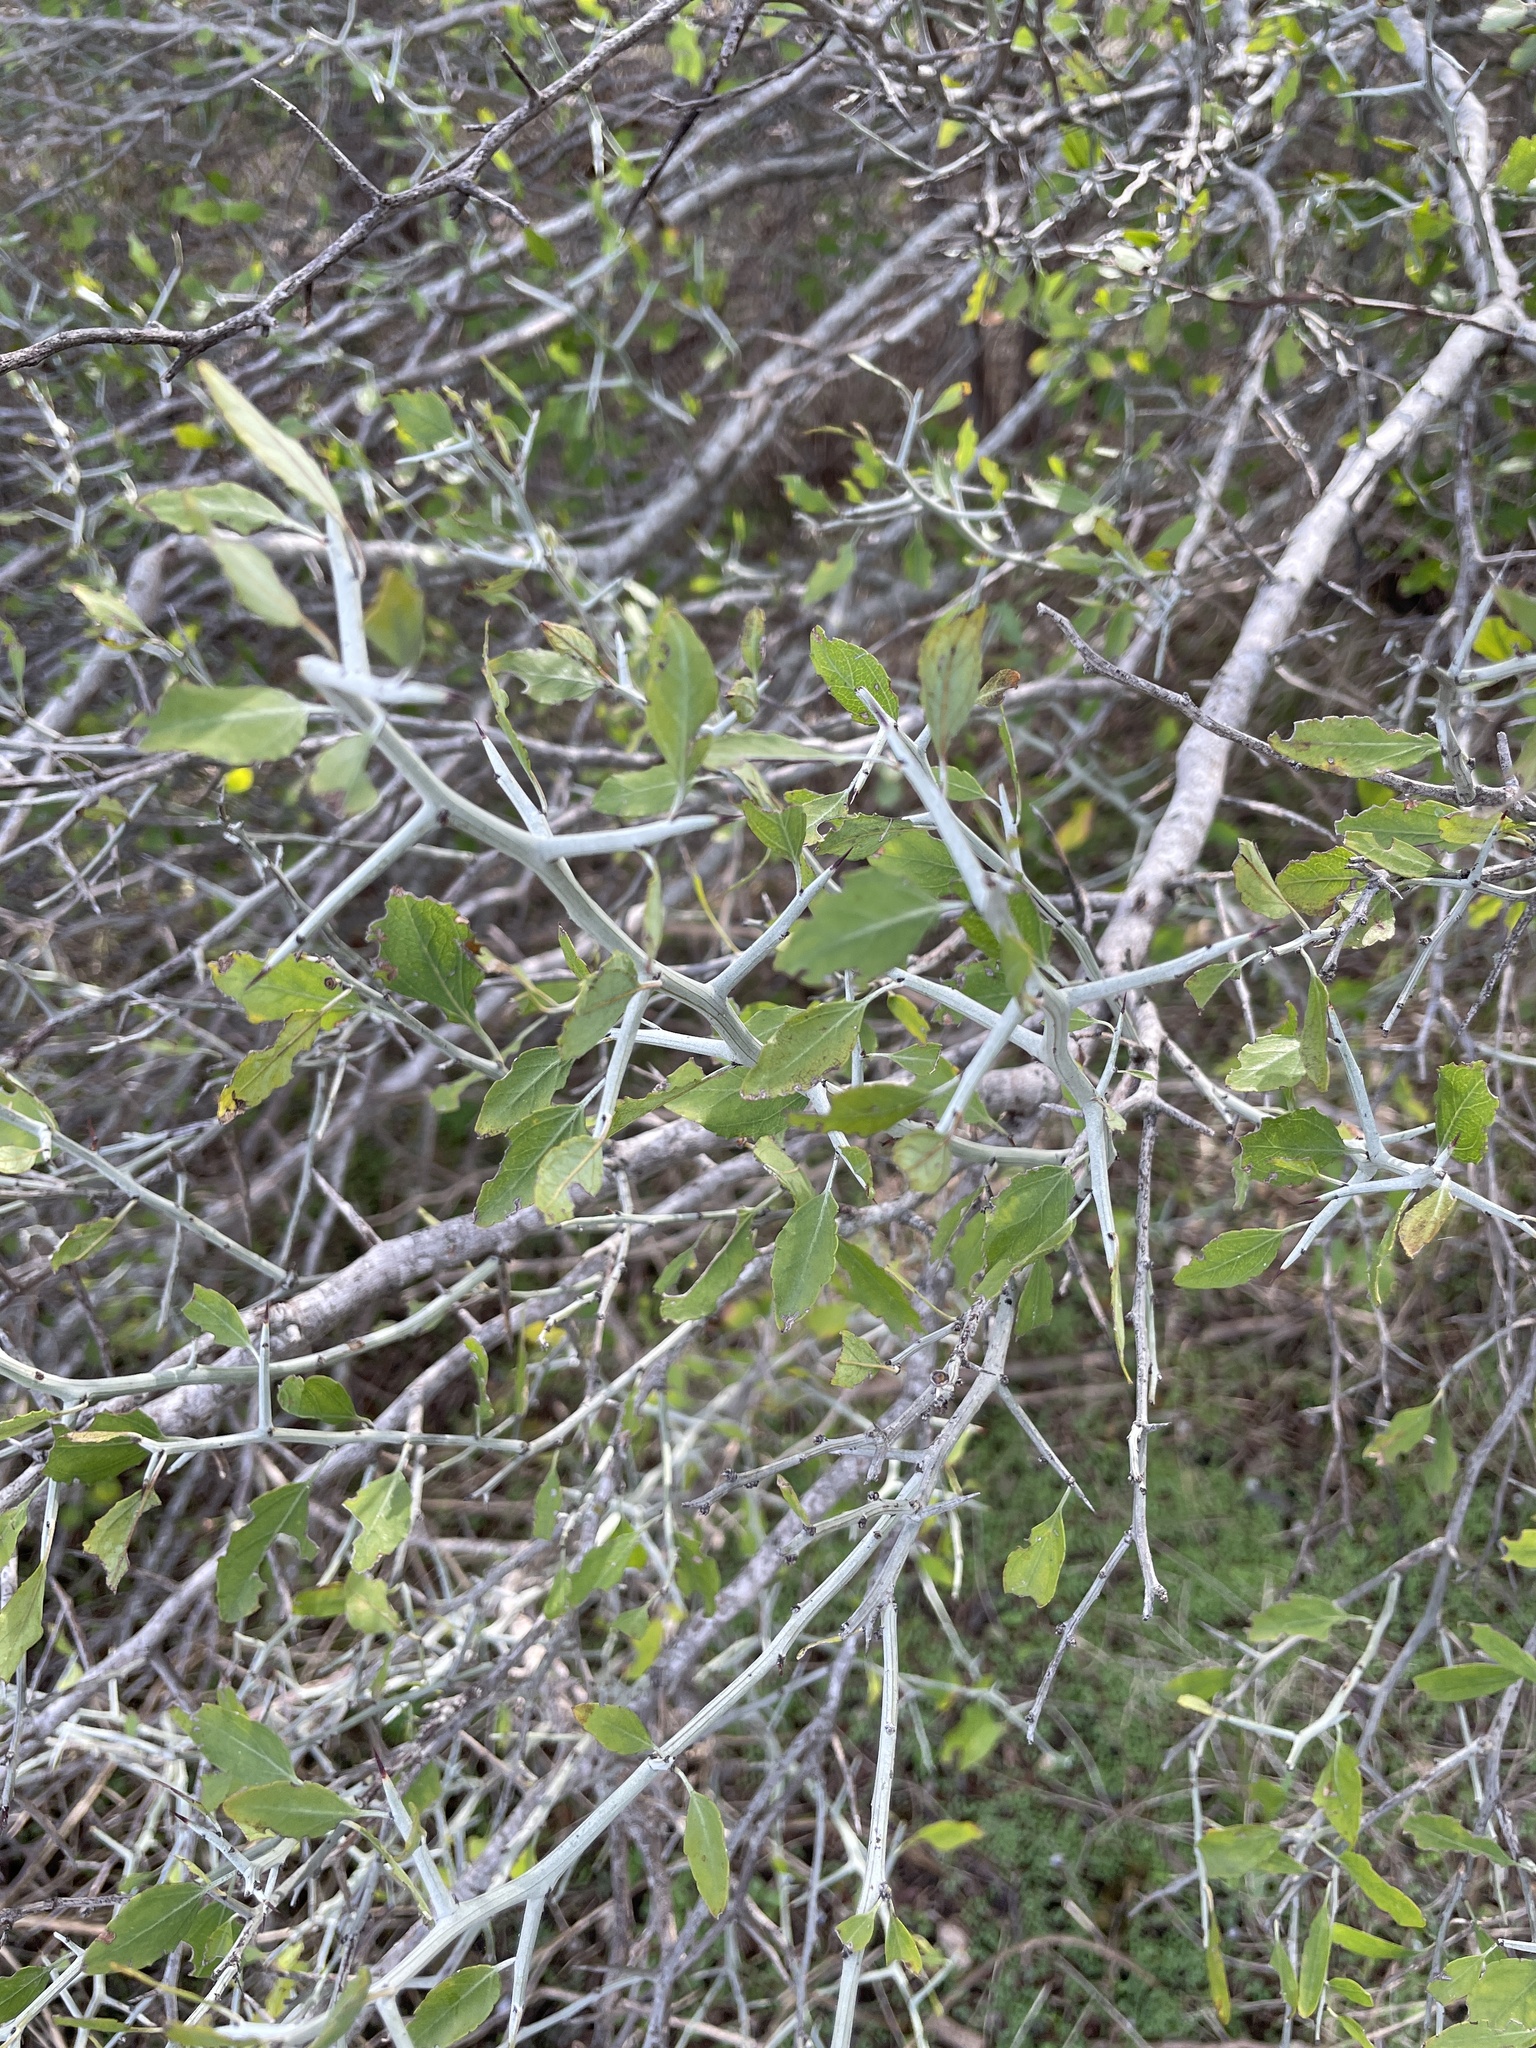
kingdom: Plantae
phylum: Tracheophyta
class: Magnoliopsida
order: Rosales
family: Rhamnaceae
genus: Sarcomphalus
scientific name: Sarcomphalus obtusifolius
